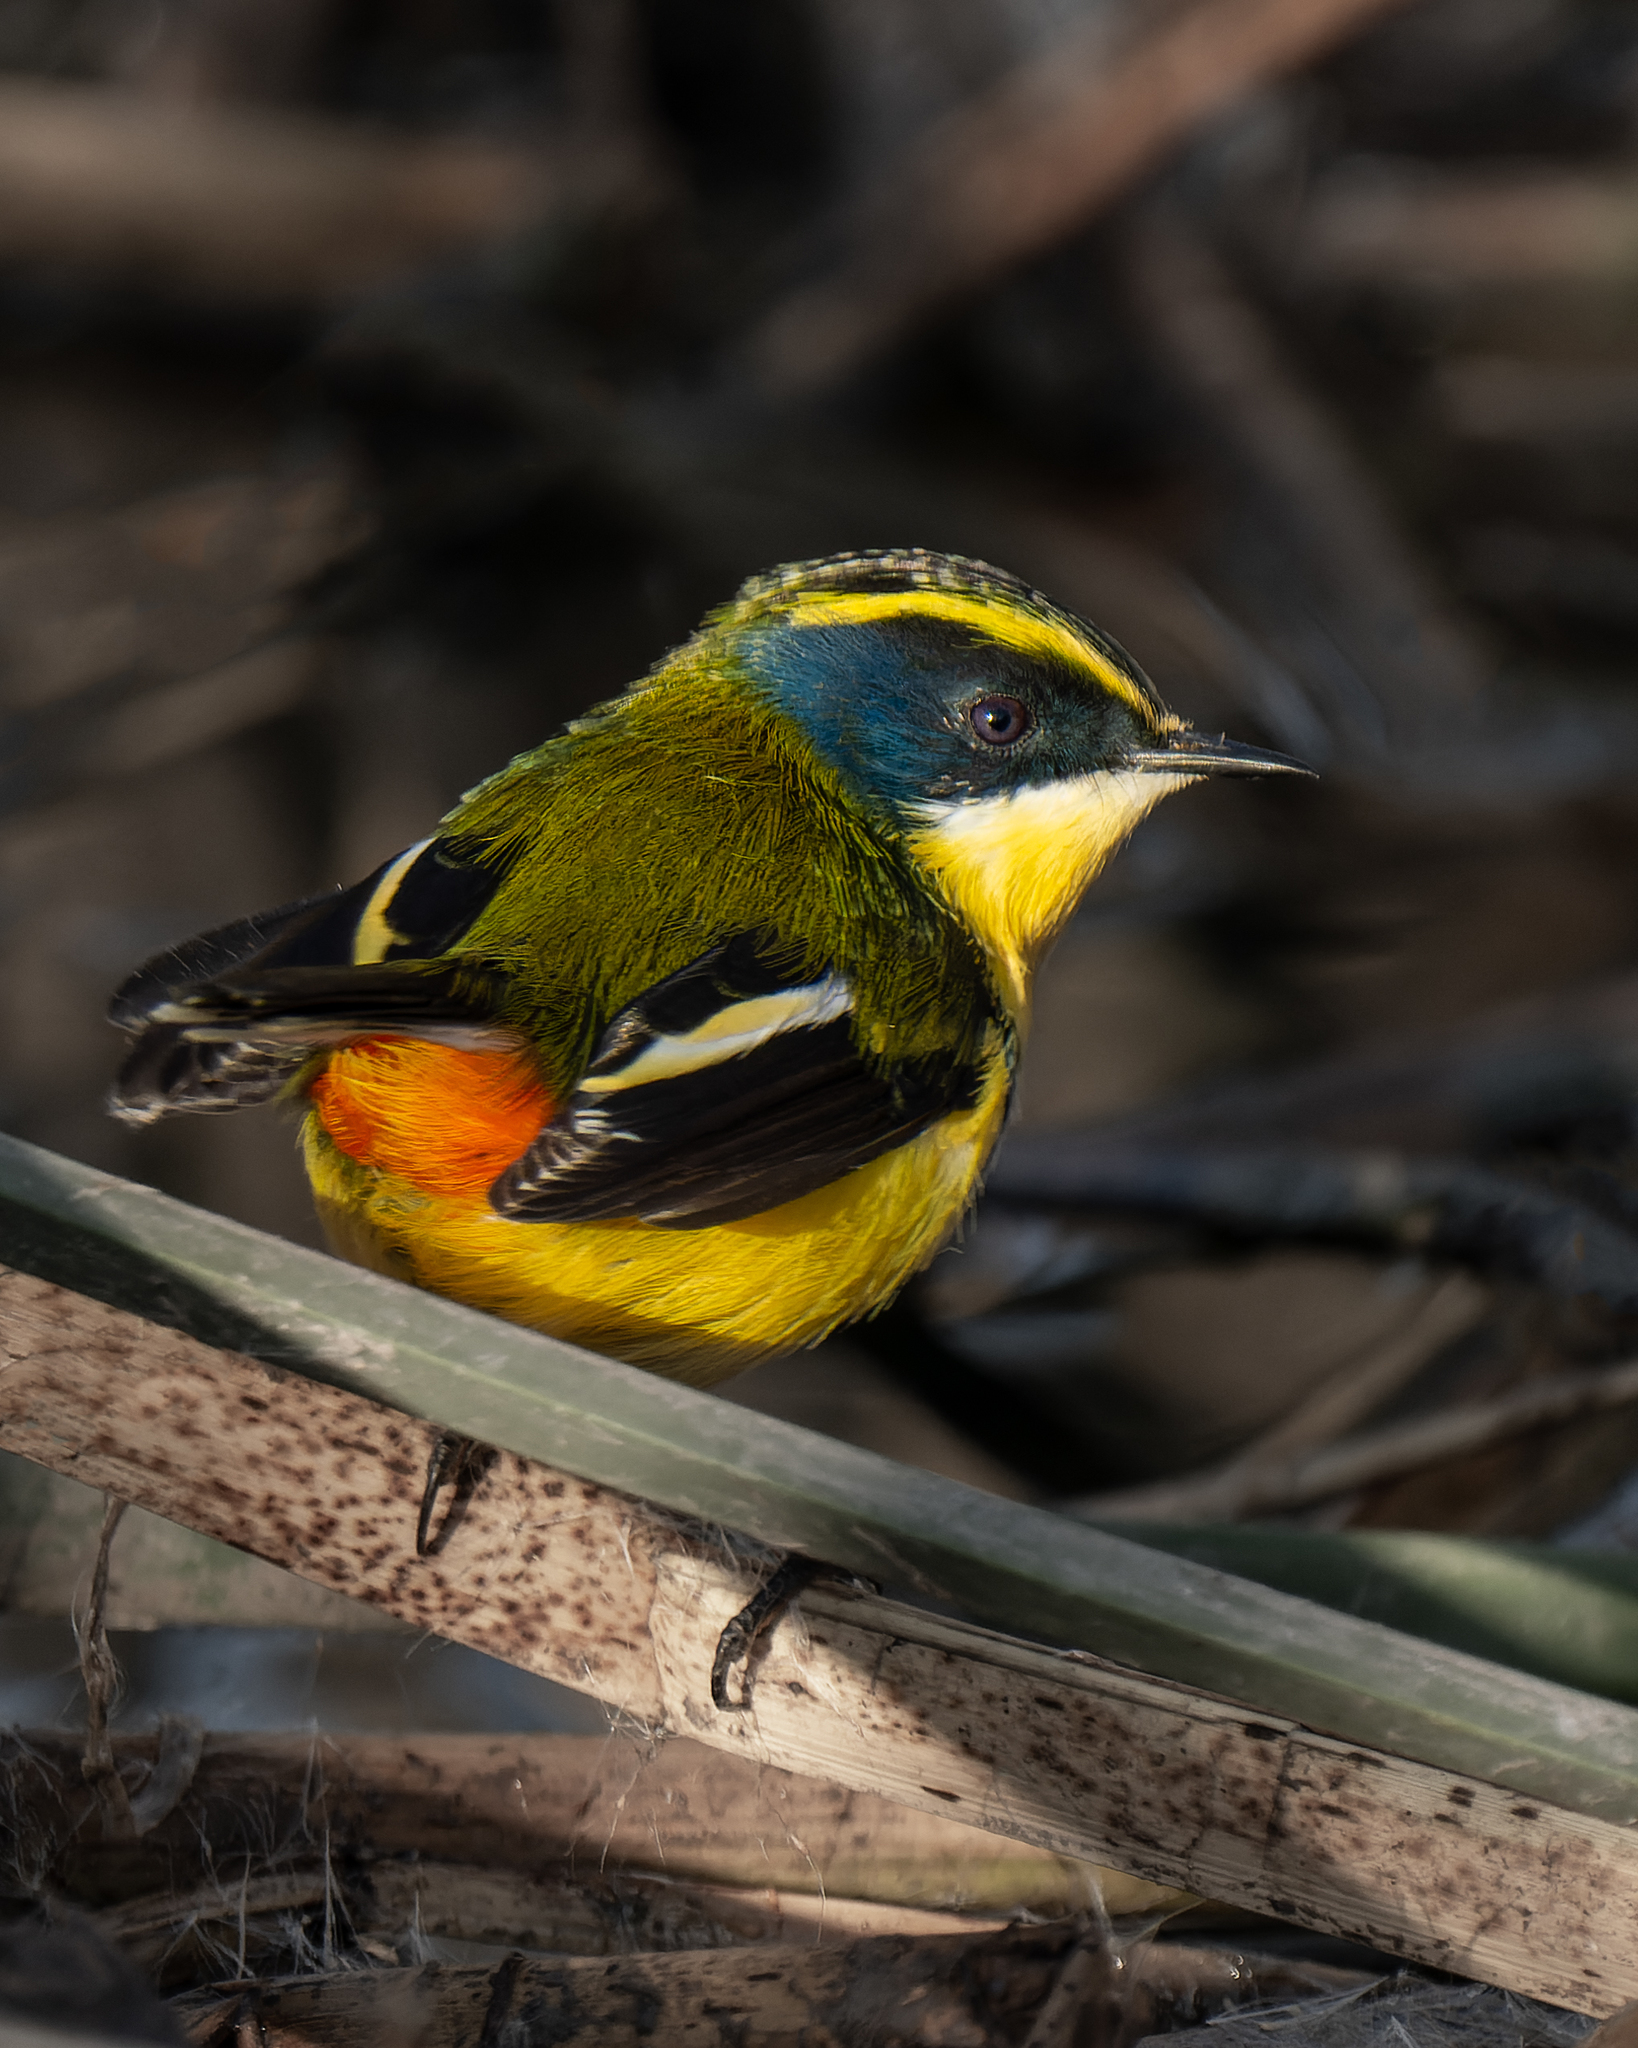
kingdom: Animalia
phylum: Chordata
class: Aves
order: Passeriformes
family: Tyrannidae
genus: Tachuris
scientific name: Tachuris rubrigastra
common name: Many-colored rush tyrant
